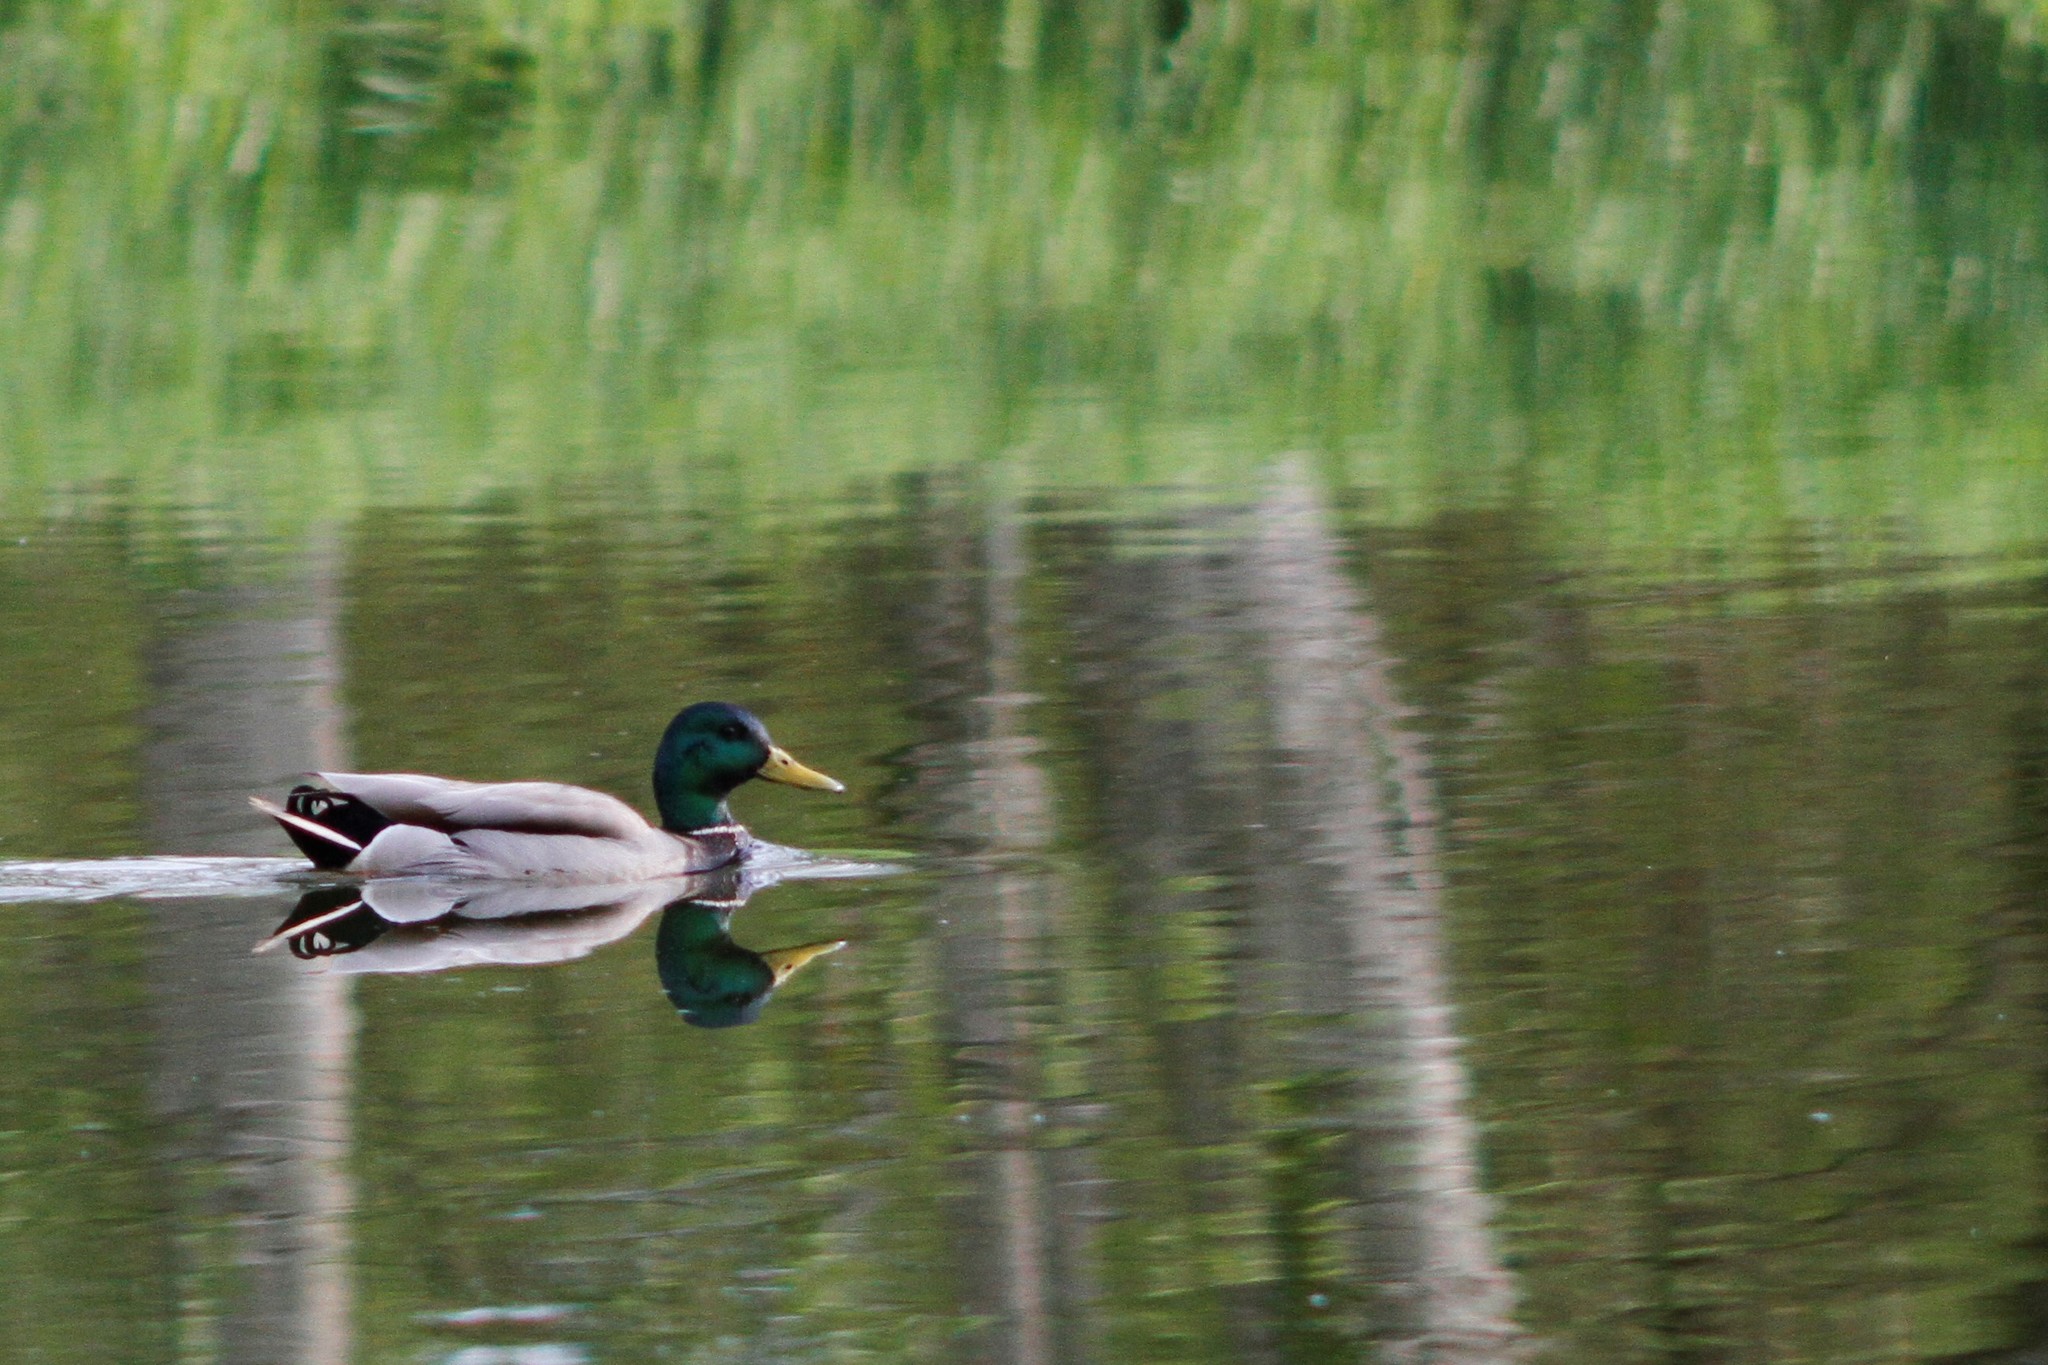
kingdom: Animalia
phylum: Chordata
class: Aves
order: Anseriformes
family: Anatidae
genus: Anas
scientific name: Anas platyrhynchos
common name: Mallard
